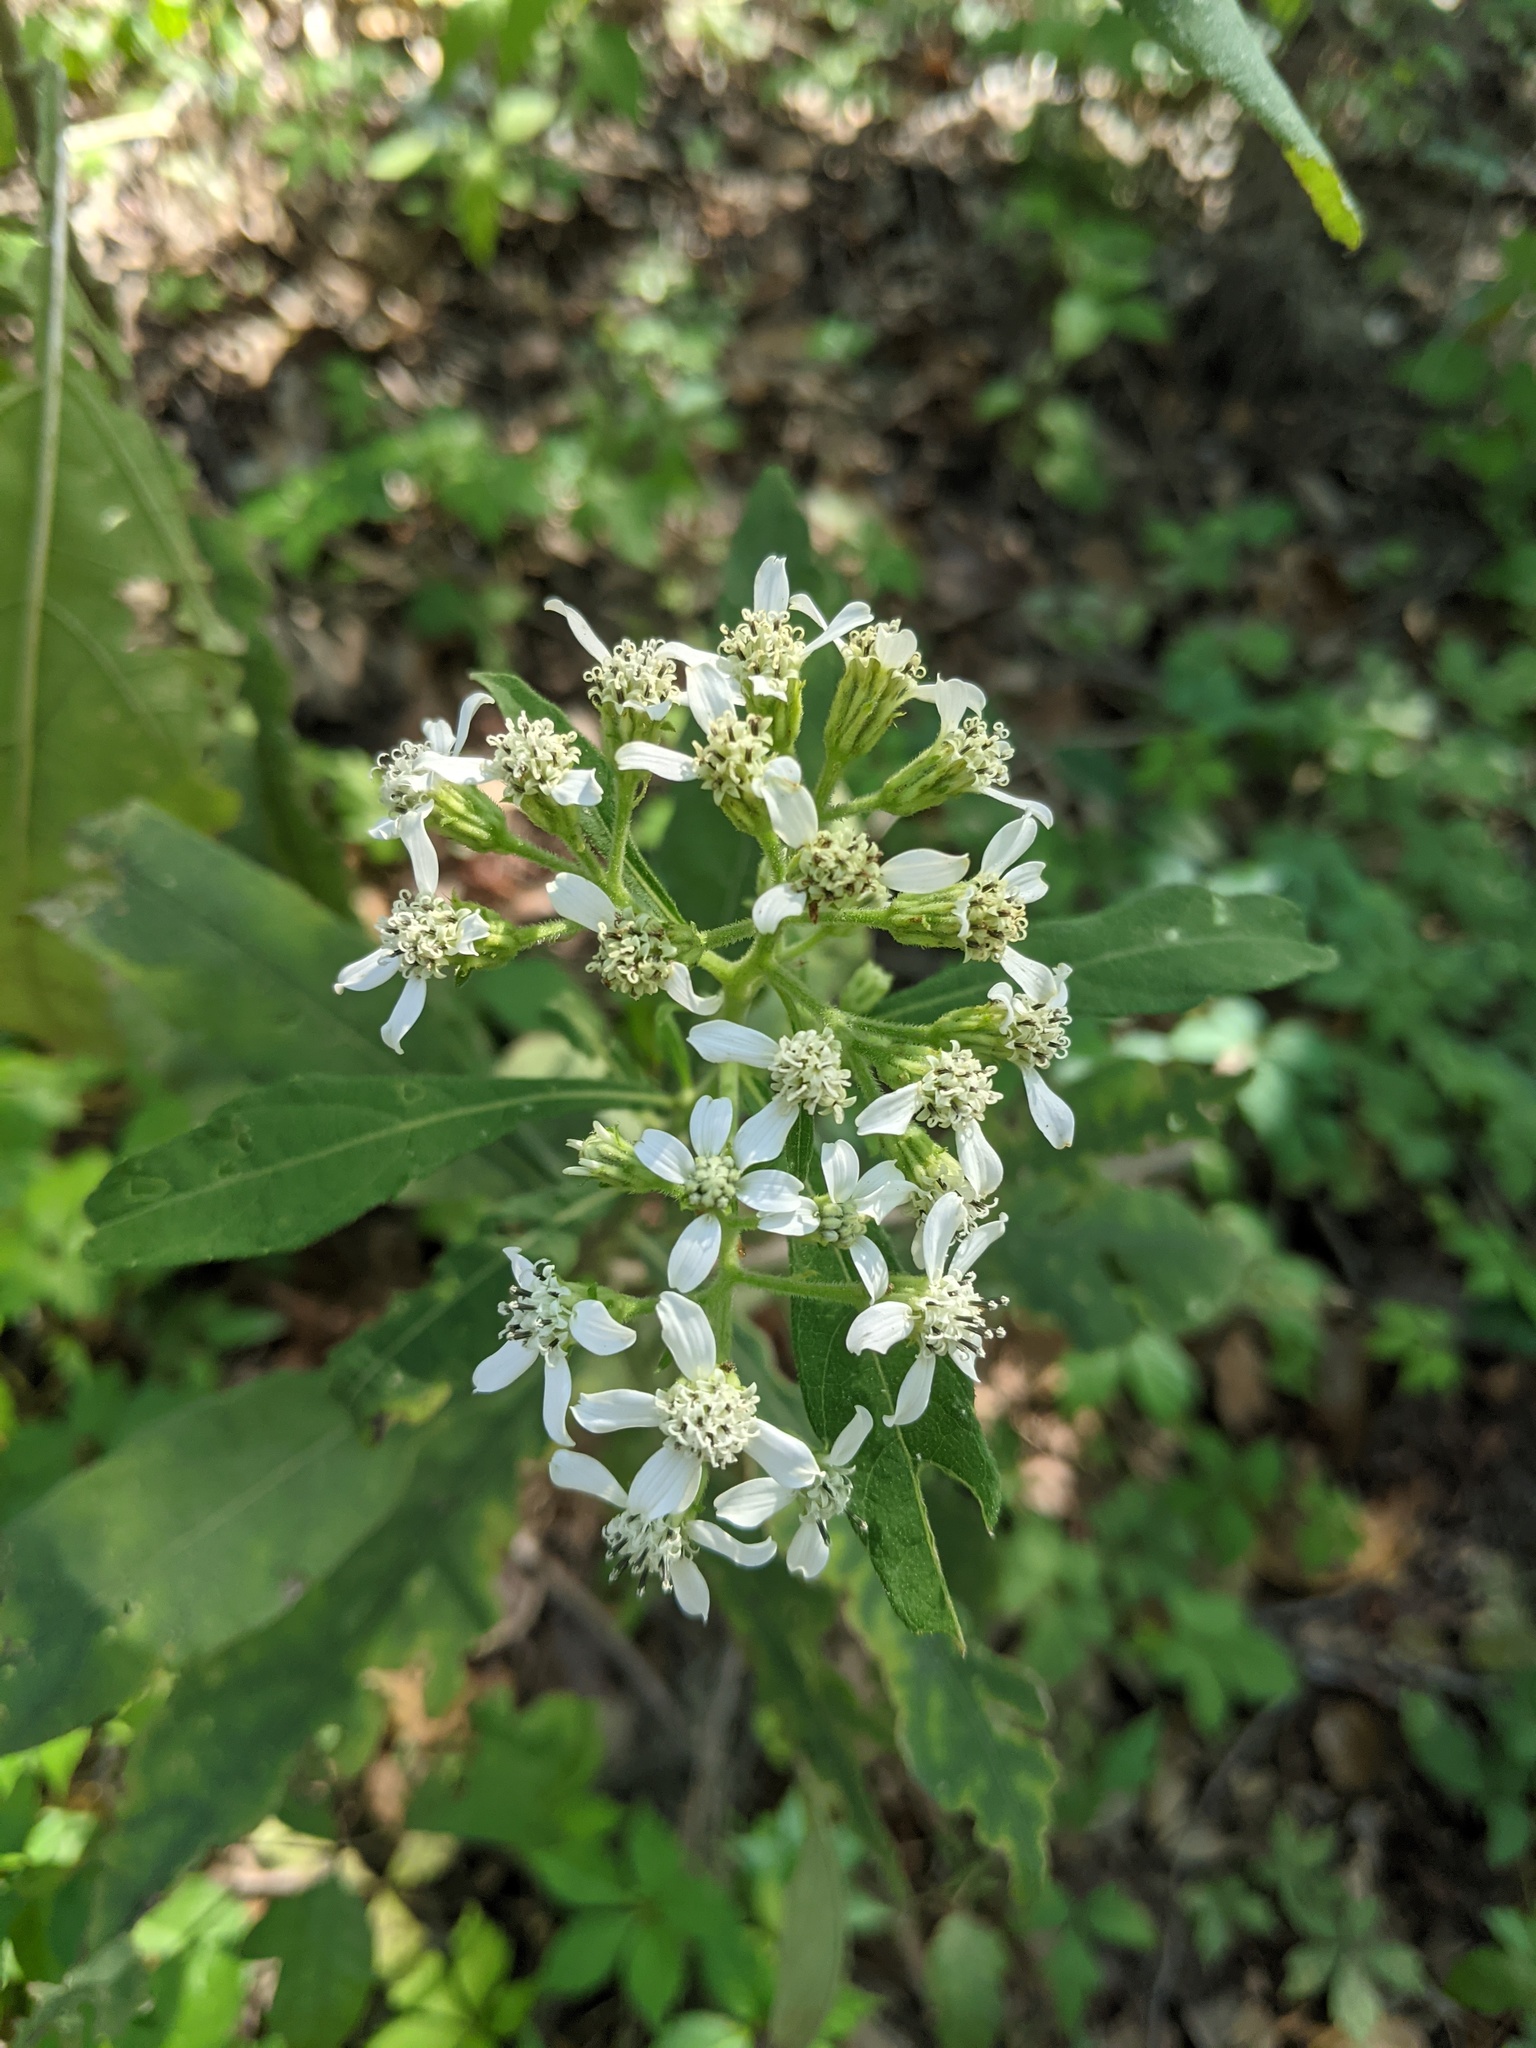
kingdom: Plantae
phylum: Tracheophyta
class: Magnoliopsida
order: Asterales
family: Asteraceae
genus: Verbesina
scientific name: Verbesina virginica
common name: Frostweed
